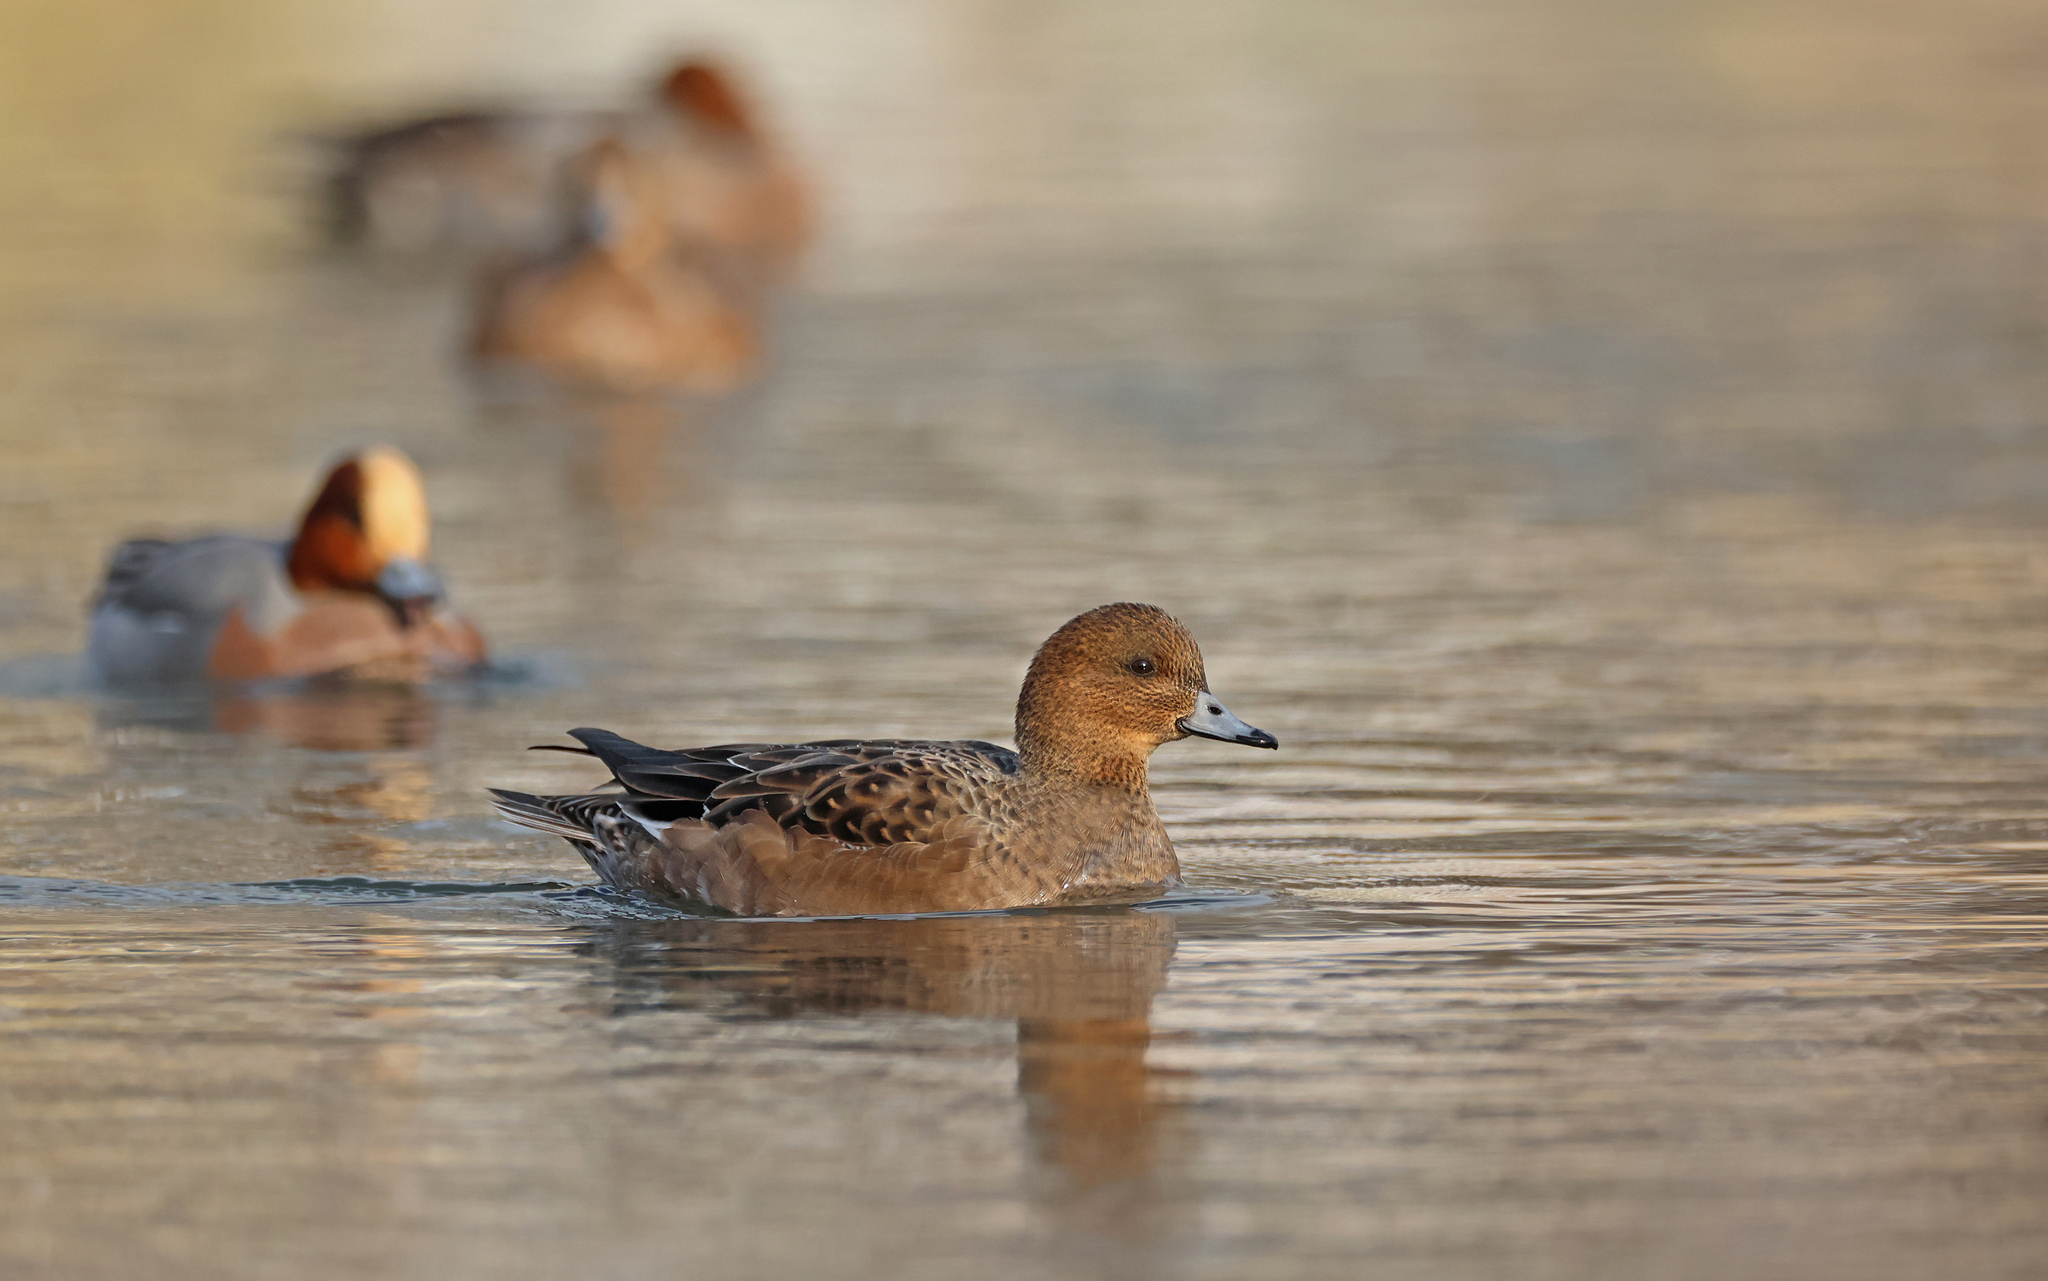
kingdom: Animalia
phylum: Chordata
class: Aves
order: Anseriformes
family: Anatidae
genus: Mareca
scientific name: Mareca penelope
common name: Eurasian wigeon
